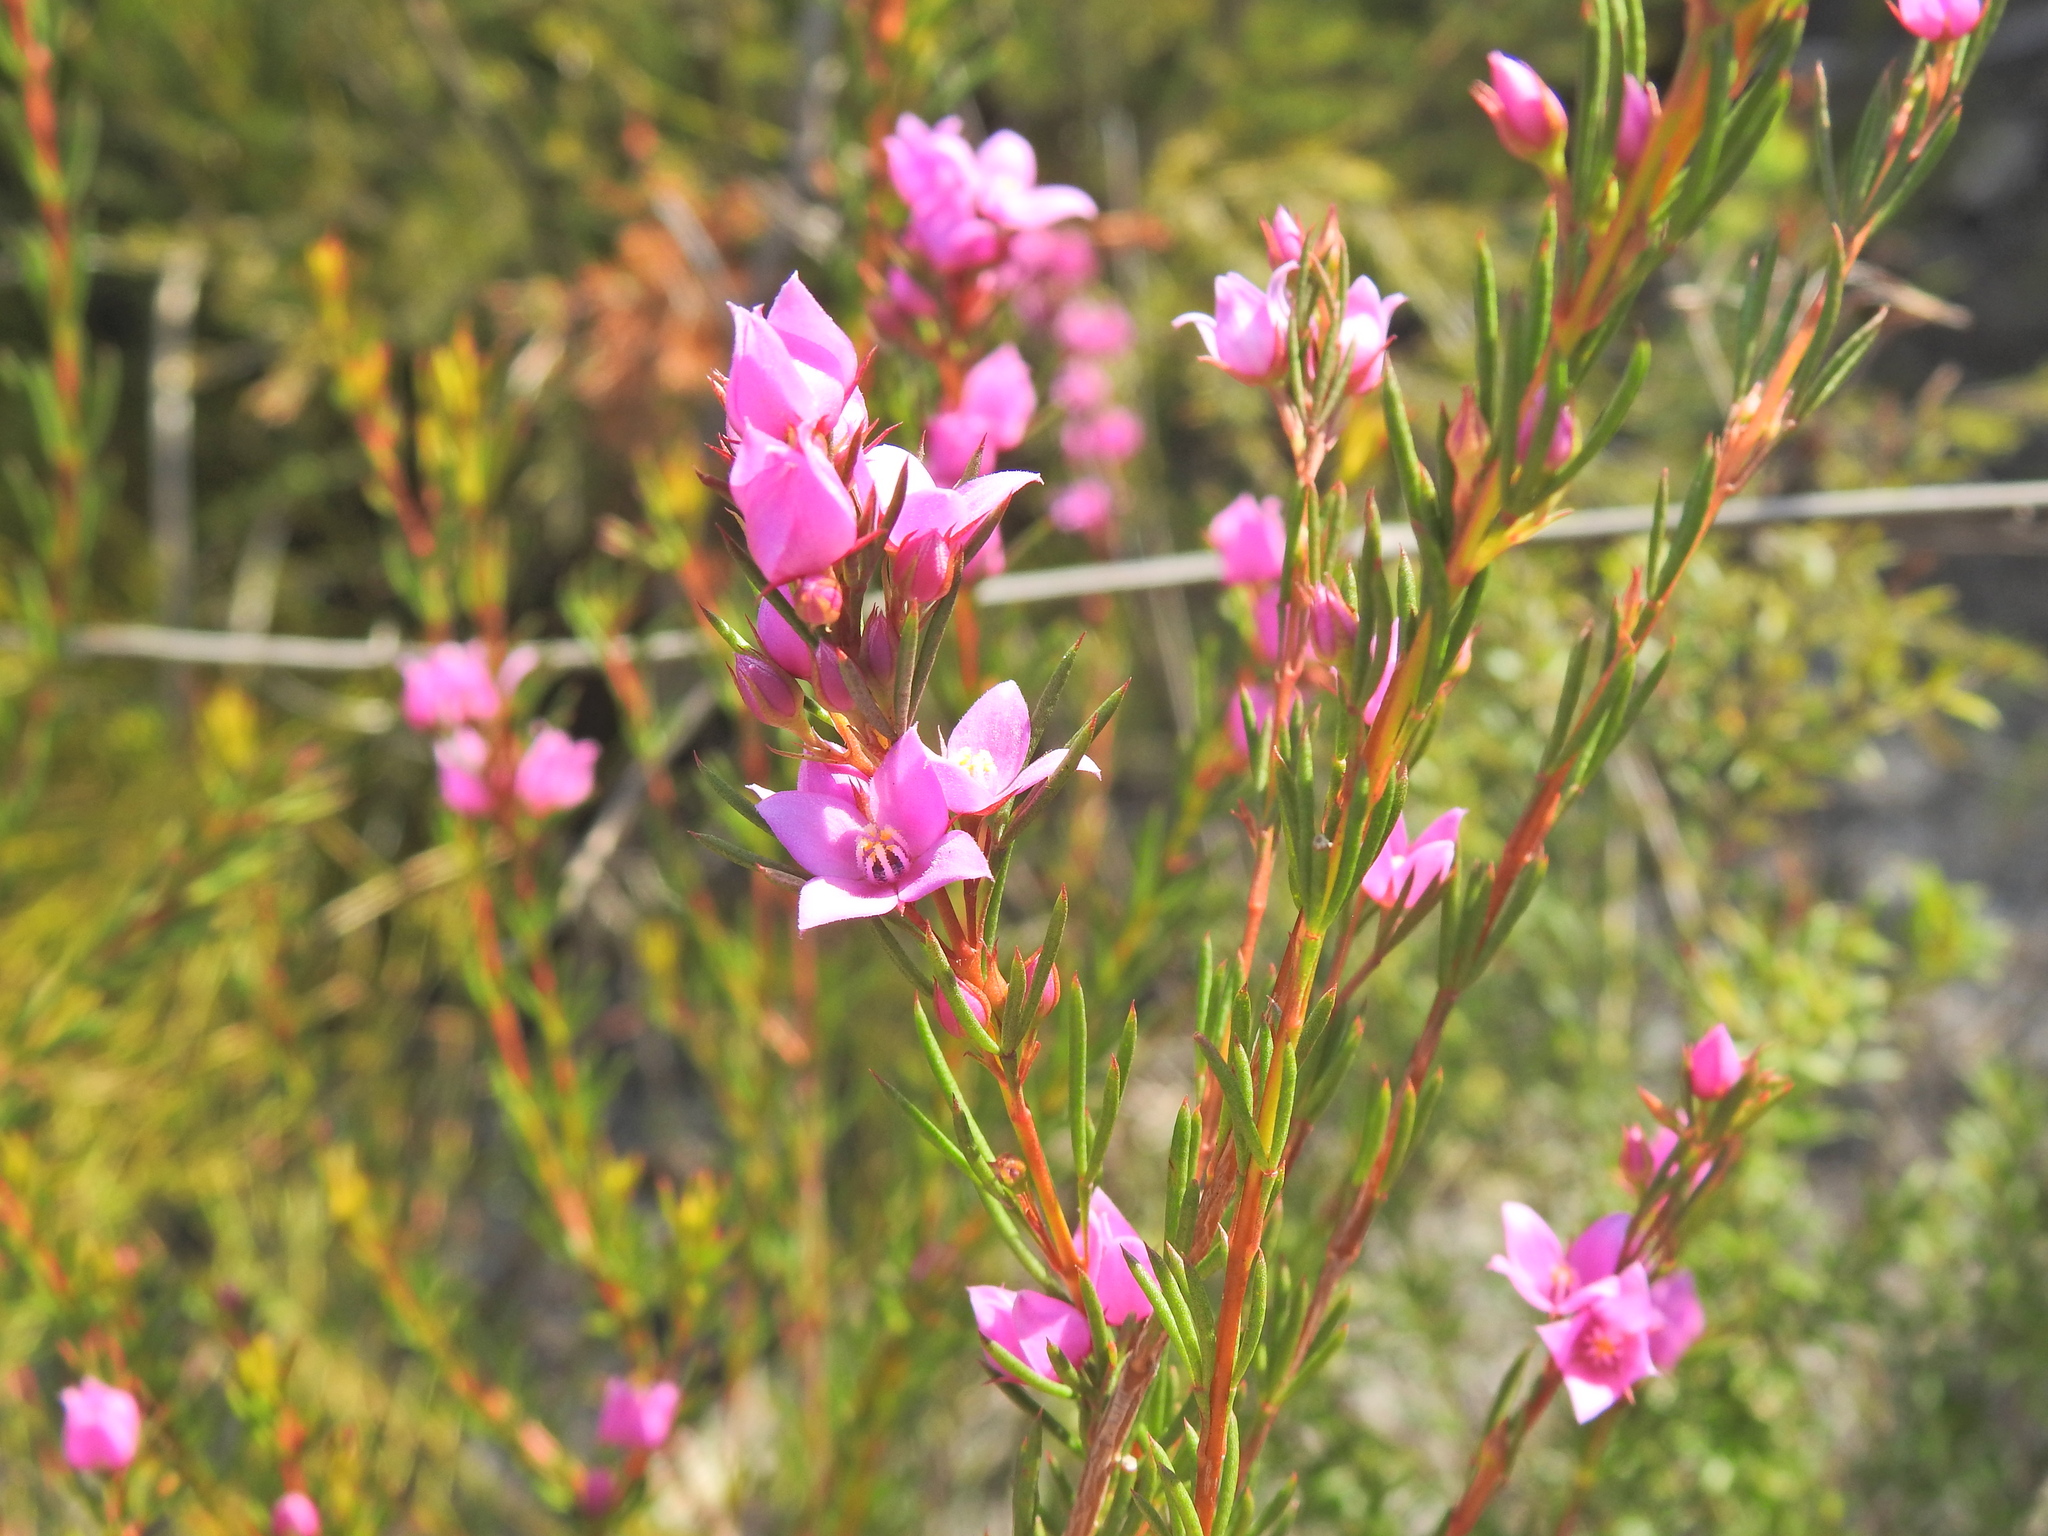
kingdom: Plantae
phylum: Tracheophyta
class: Magnoliopsida
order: Sapindales
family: Rutaceae
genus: Boronia
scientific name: Boronia falcifolia
